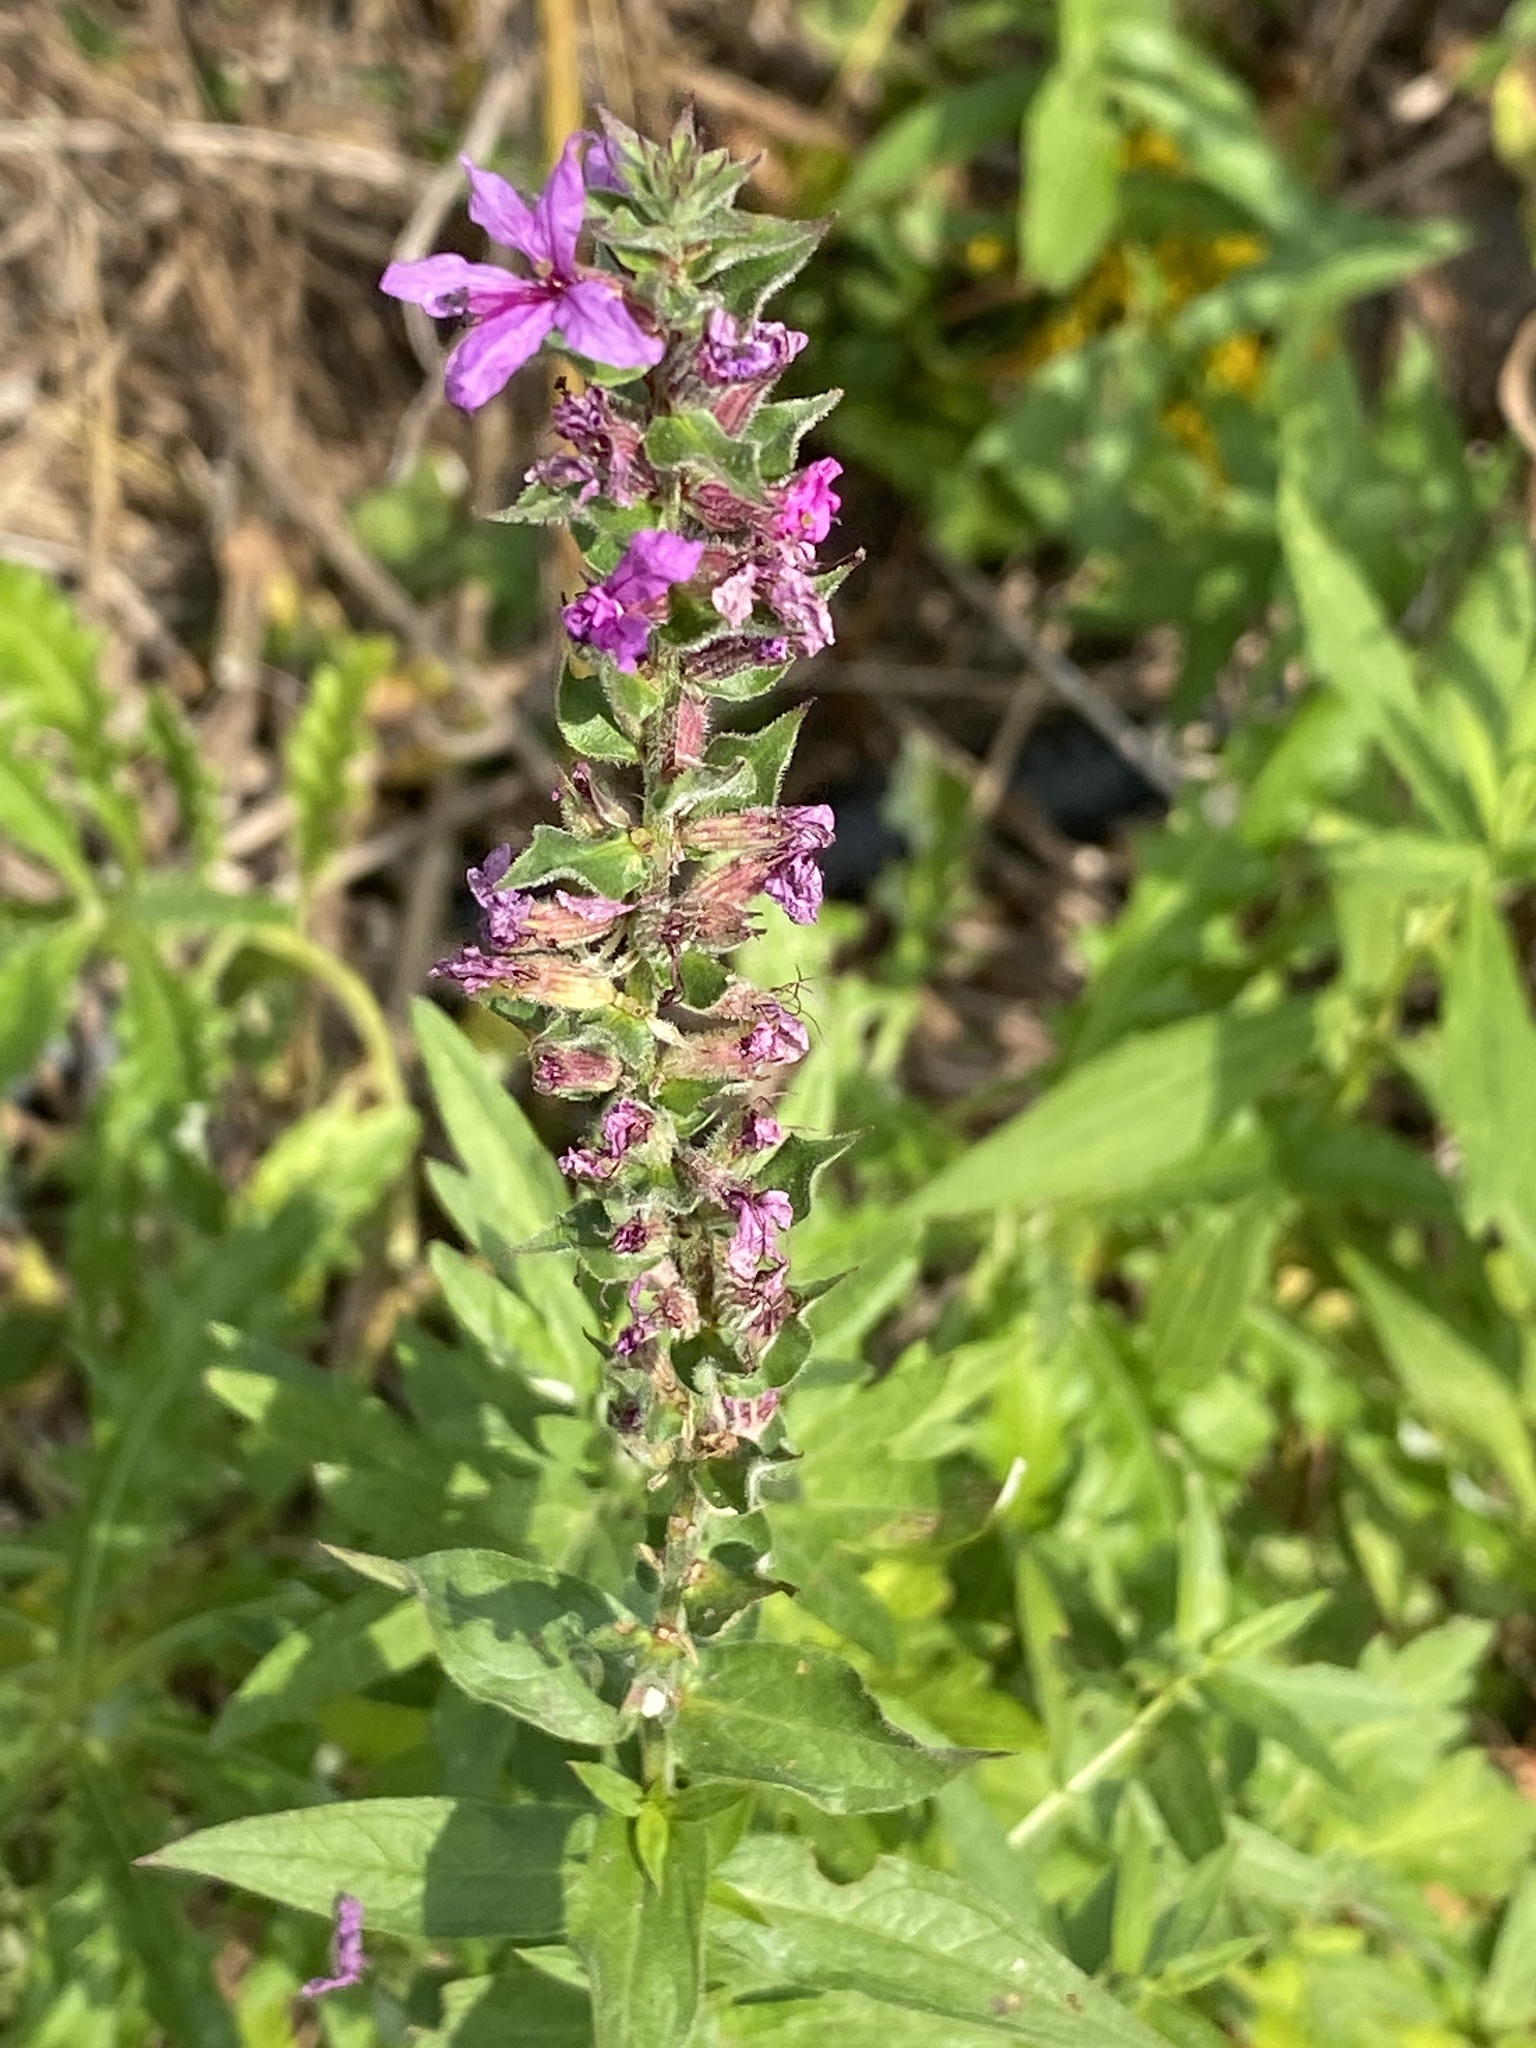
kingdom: Plantae
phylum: Tracheophyta
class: Magnoliopsida
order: Myrtales
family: Lythraceae
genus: Lythrum
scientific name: Lythrum salicaria
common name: Purple loosestrife
